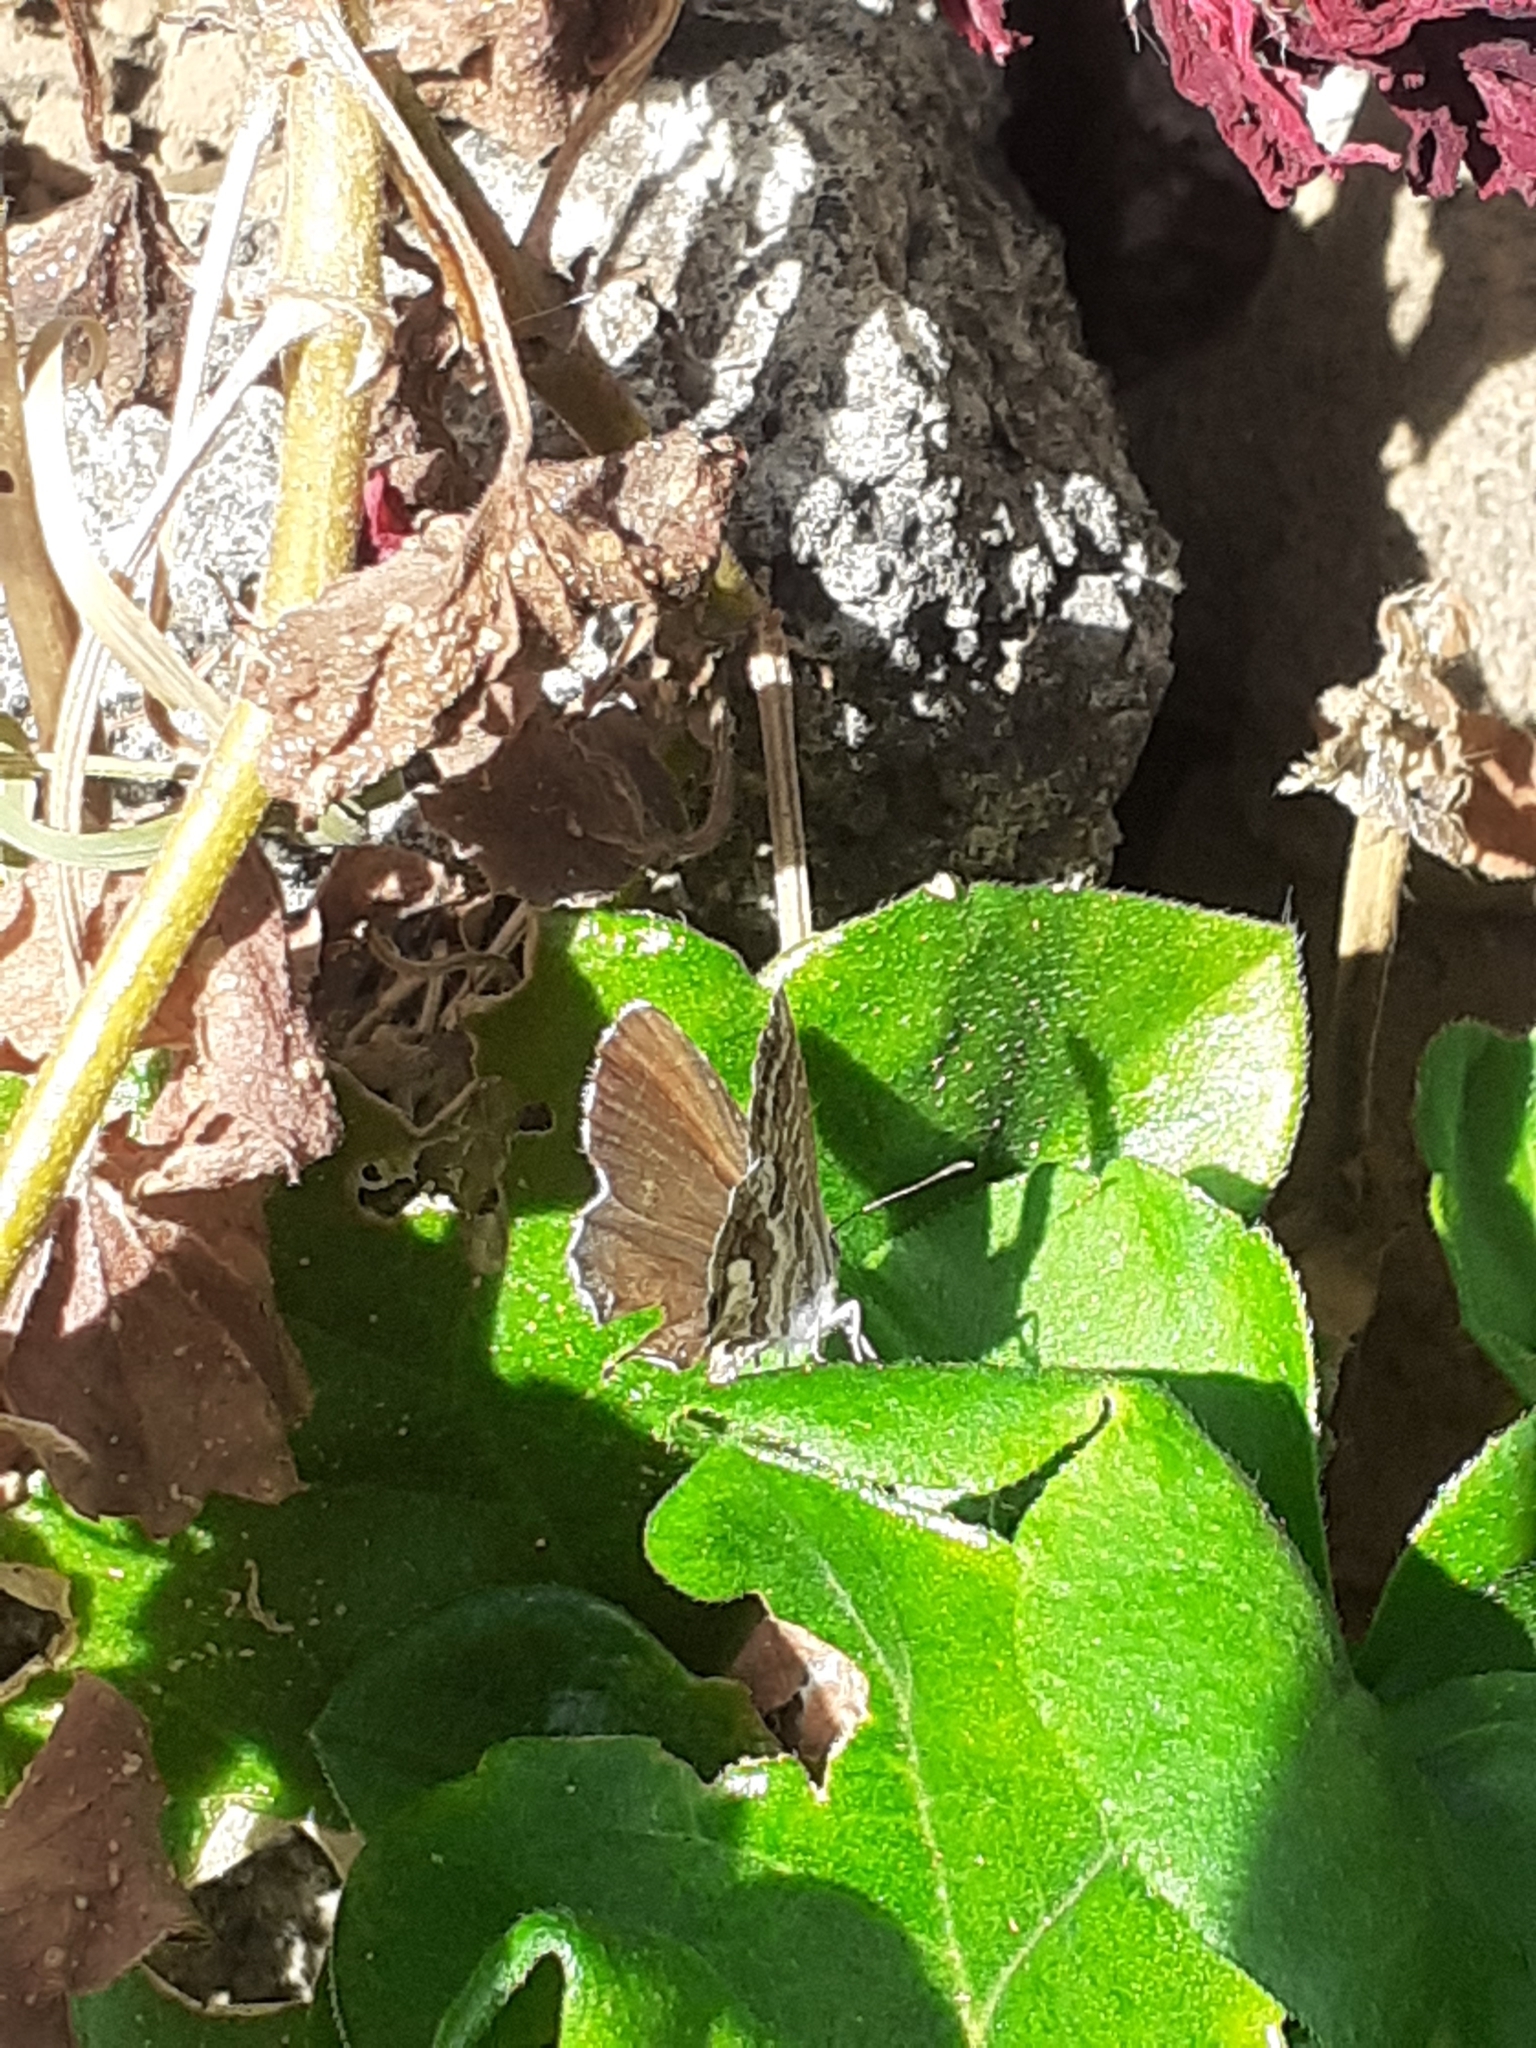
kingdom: Animalia
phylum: Arthropoda
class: Insecta
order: Lepidoptera
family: Lycaenidae
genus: Cacyreus
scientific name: Cacyreus marshalli
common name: Geranium bronze
